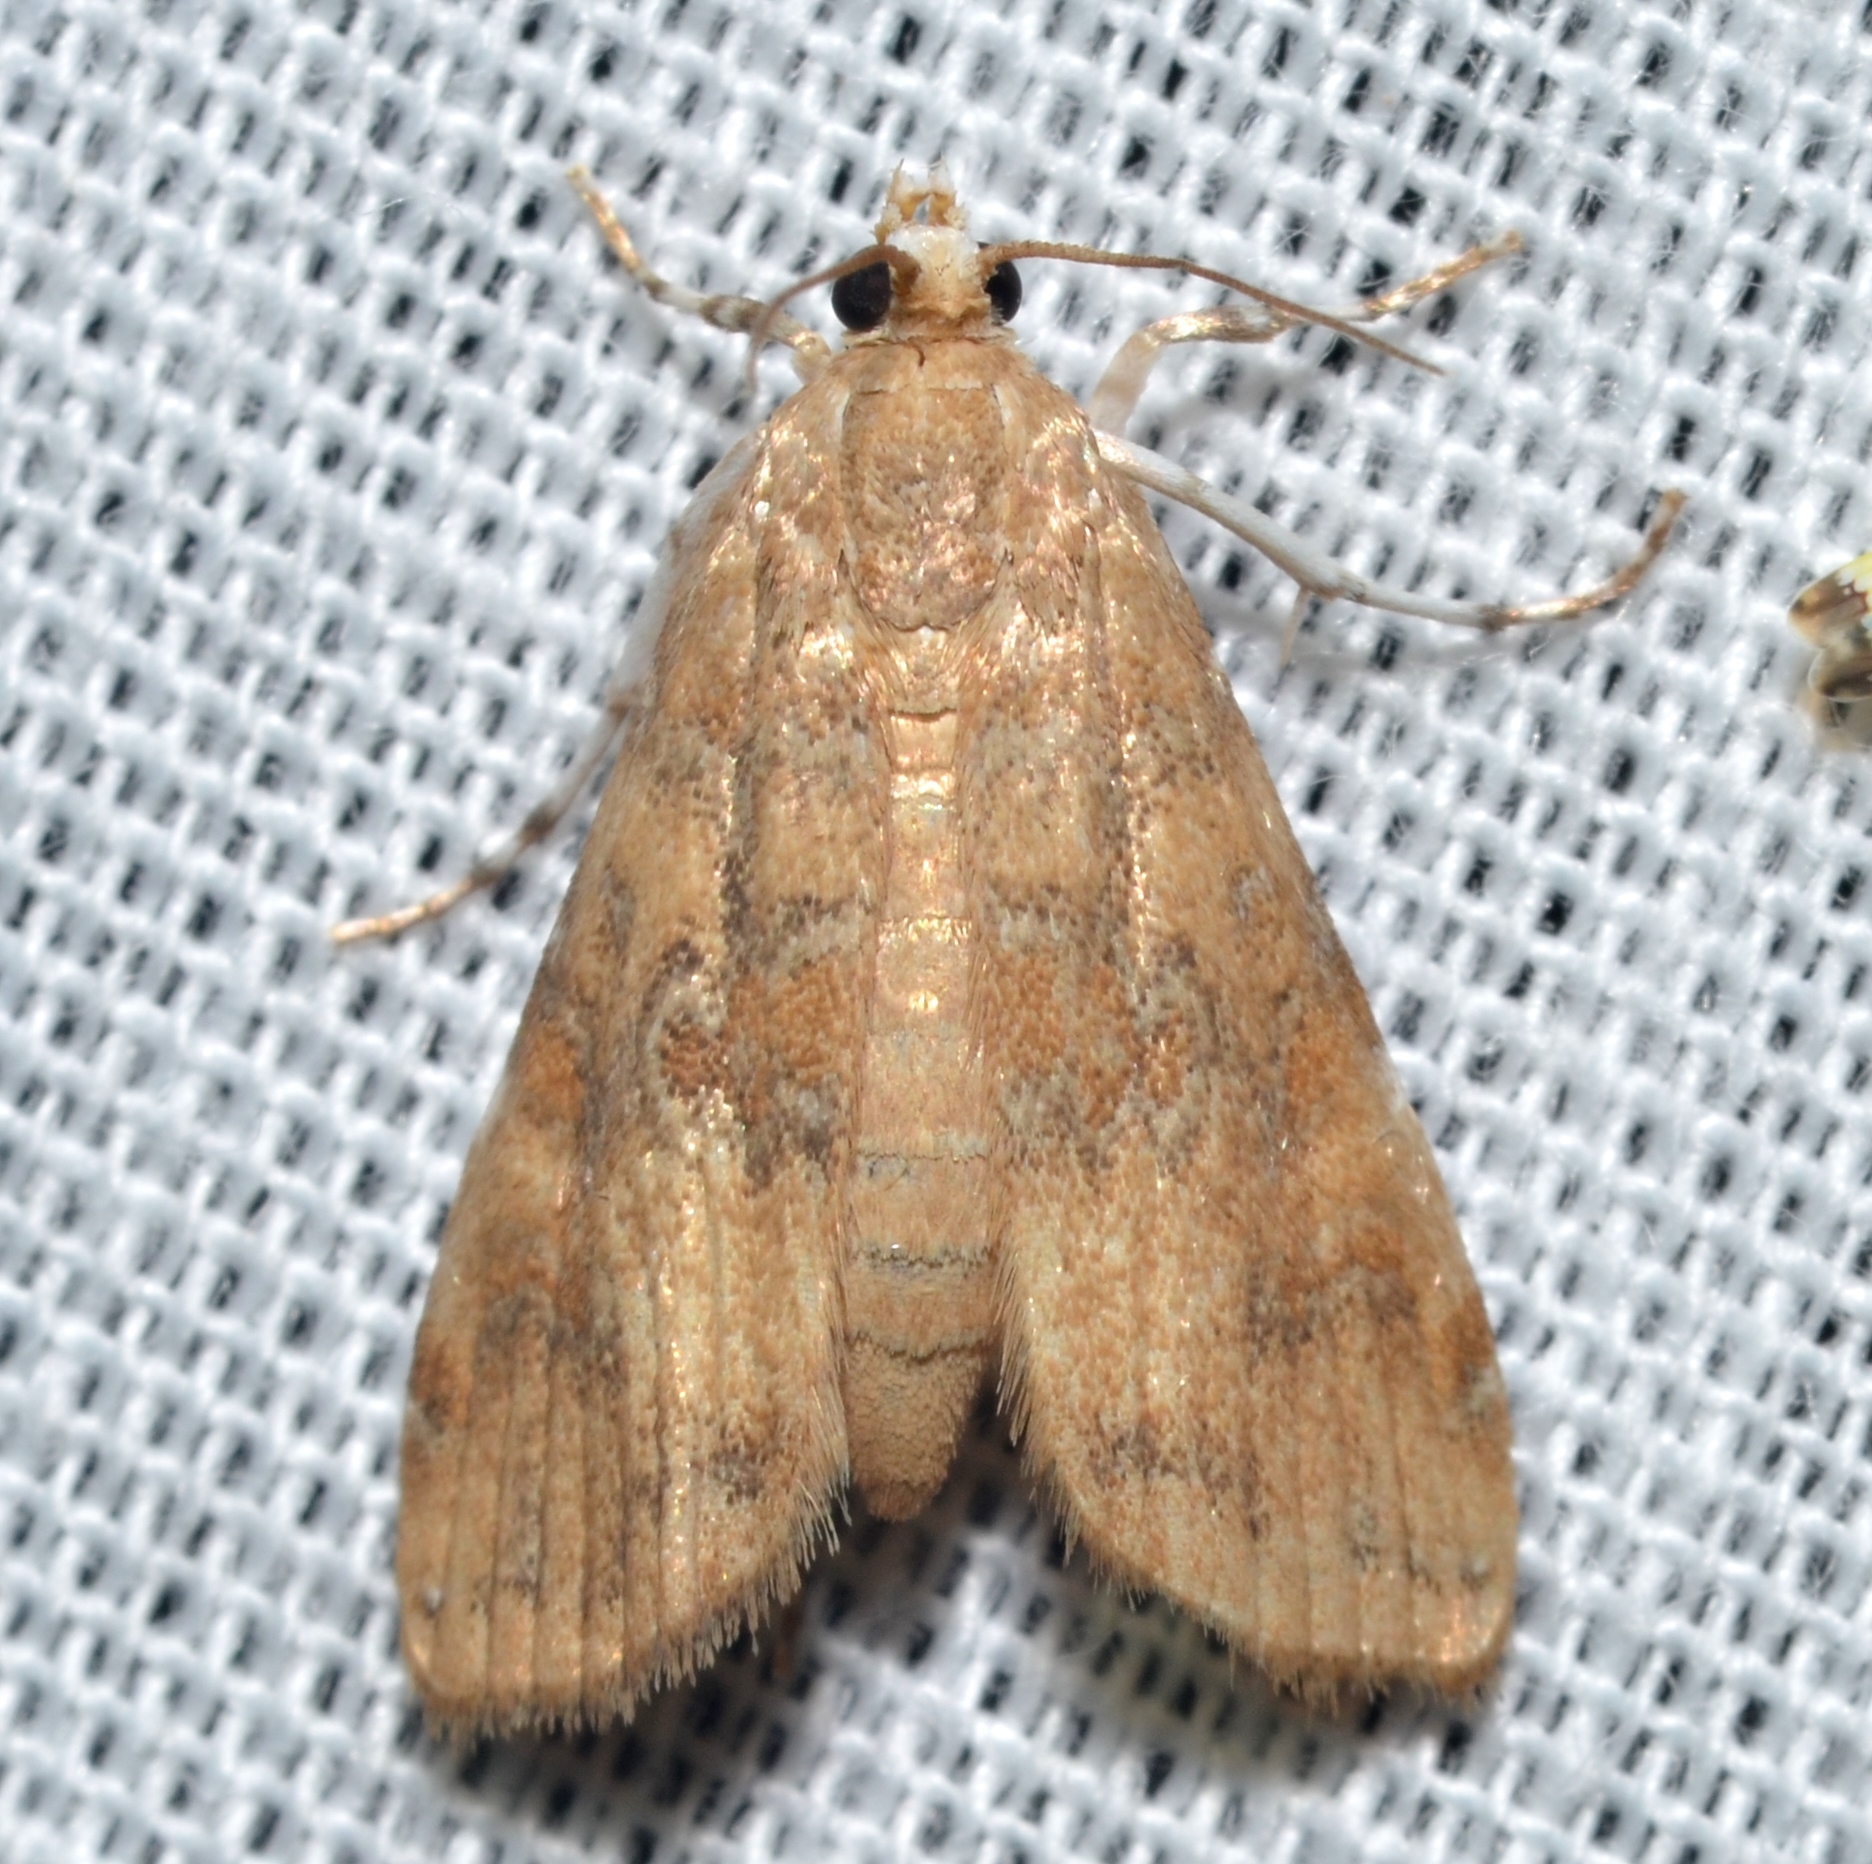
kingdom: Animalia
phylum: Arthropoda
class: Insecta
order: Lepidoptera
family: Crambidae
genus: Elophila
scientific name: Elophila gyralis
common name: Waterlily borer moth
